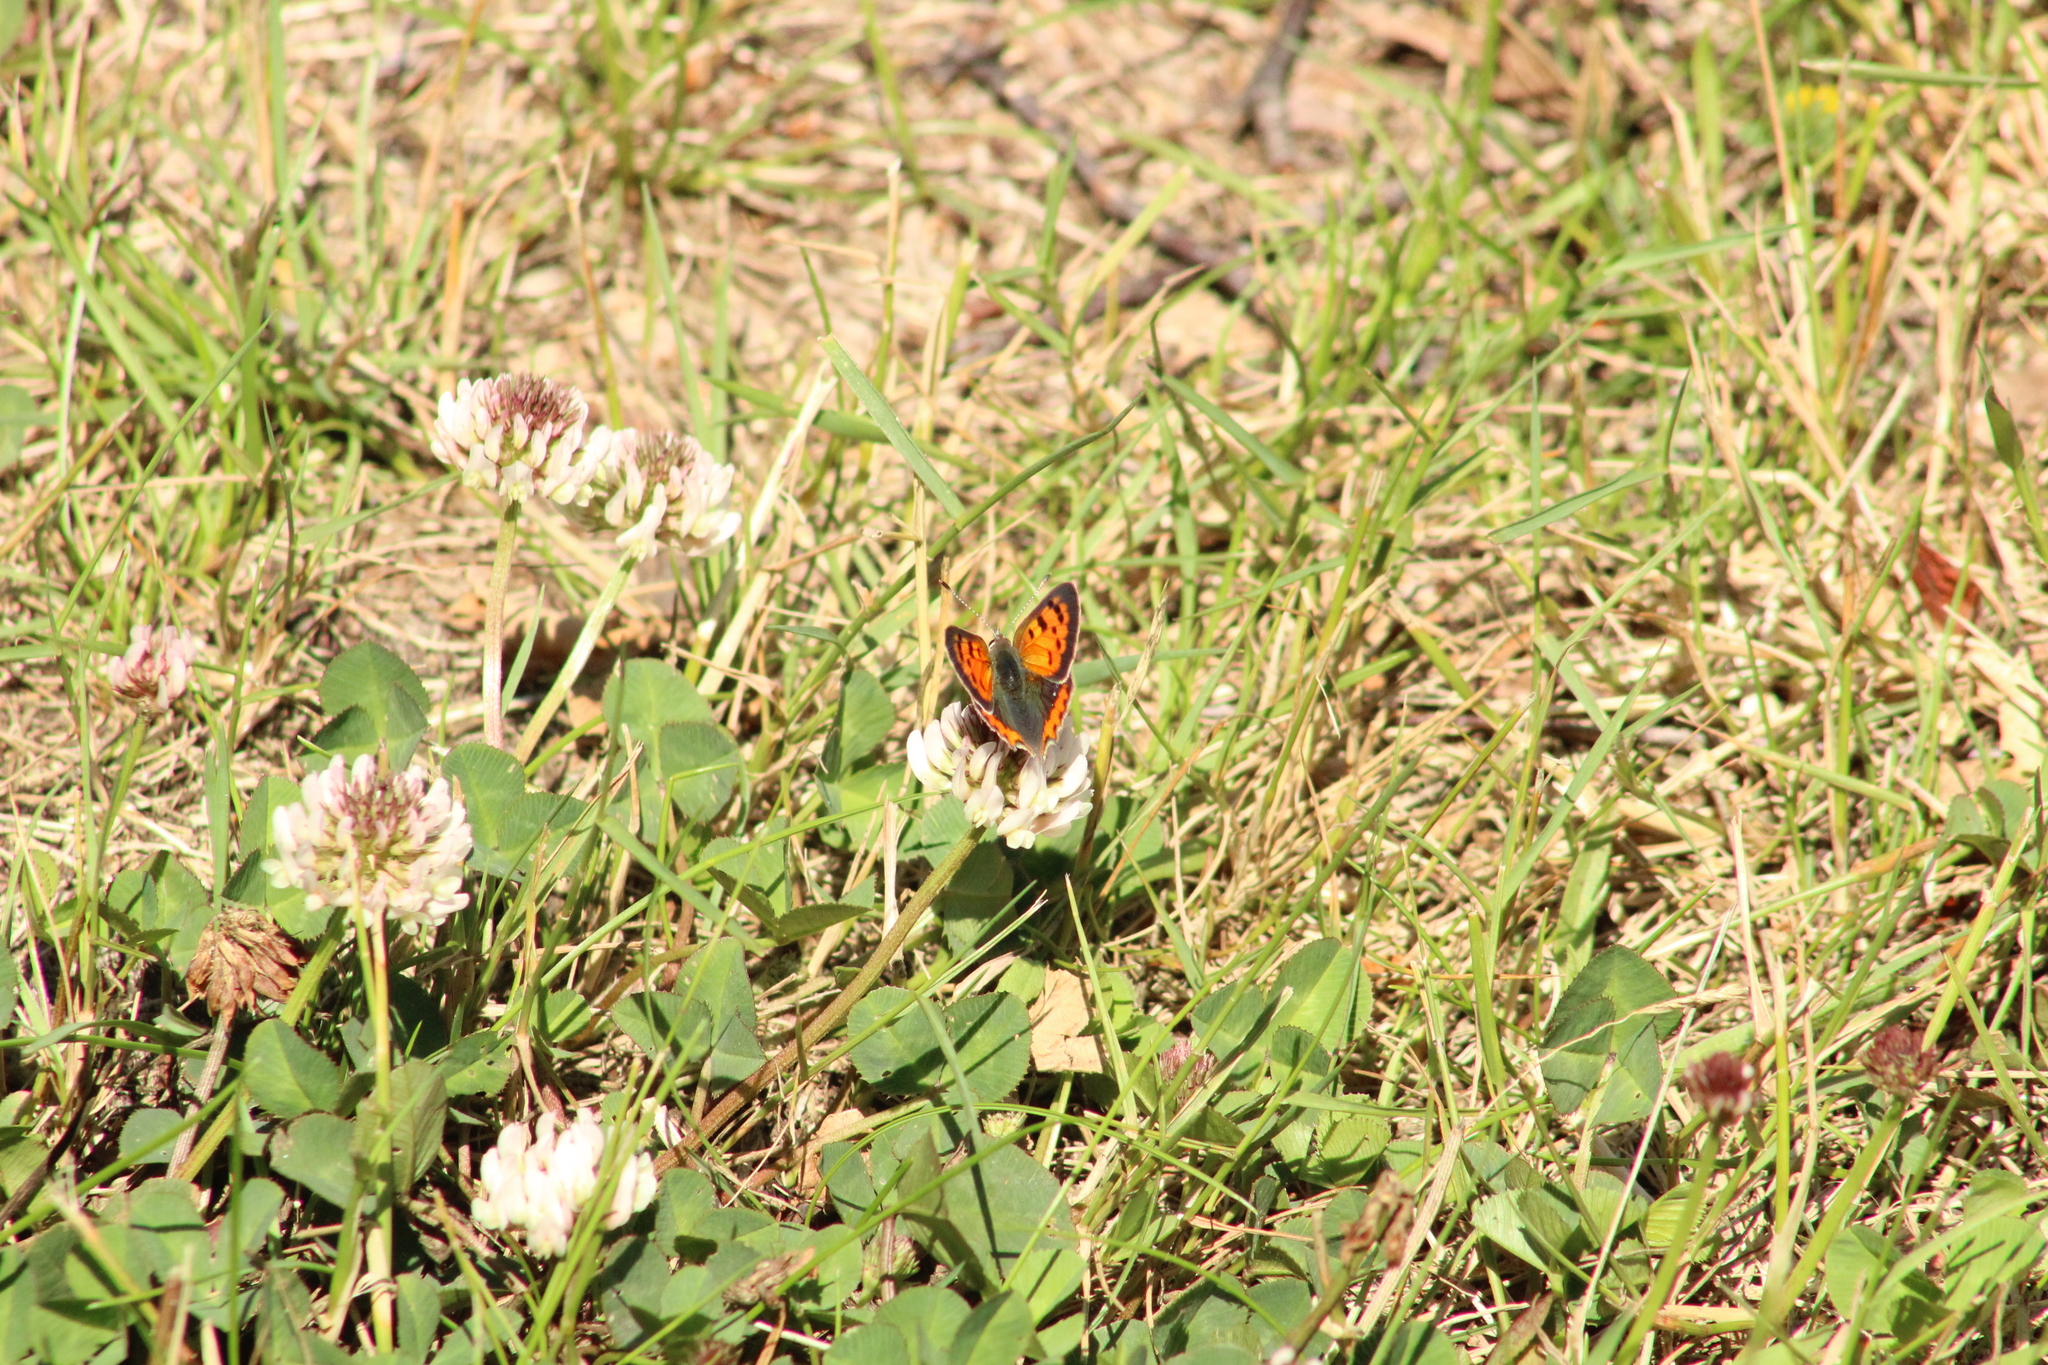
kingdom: Animalia
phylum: Arthropoda
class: Insecta
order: Lepidoptera
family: Lycaenidae
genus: Lycaena
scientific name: Lycaena phlaeas
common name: Small copper
